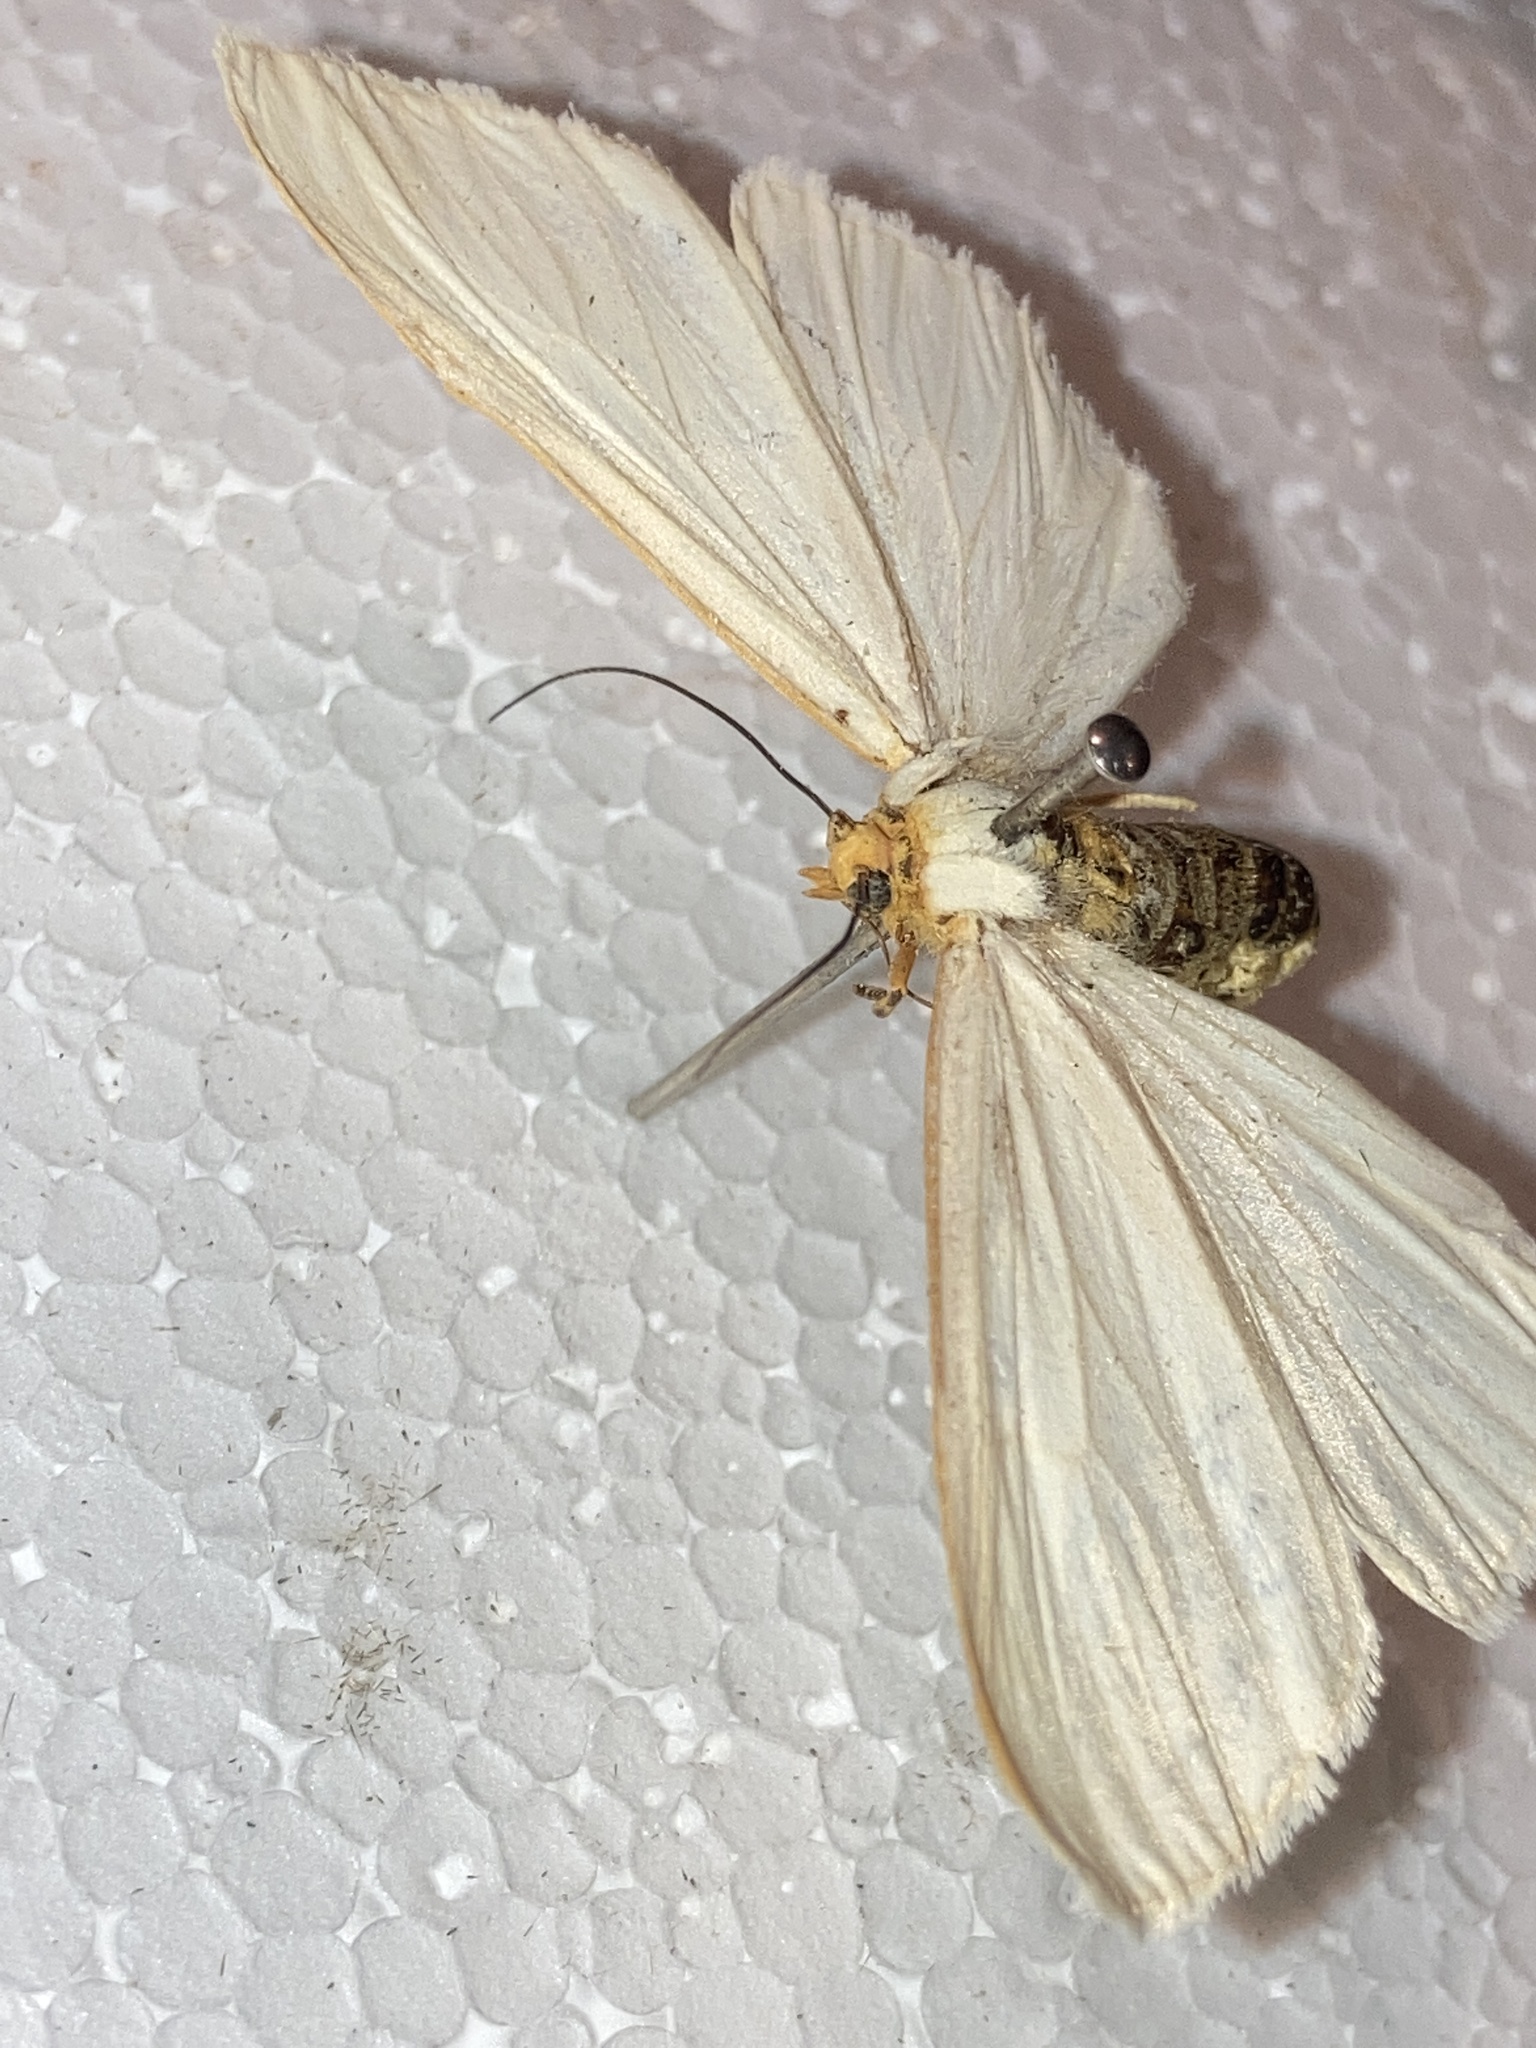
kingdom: Animalia
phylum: Arthropoda
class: Insecta
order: Lepidoptera
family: Erebidae
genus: Cycnia
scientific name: Cycnia tenera
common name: Delicate cycnia moth
